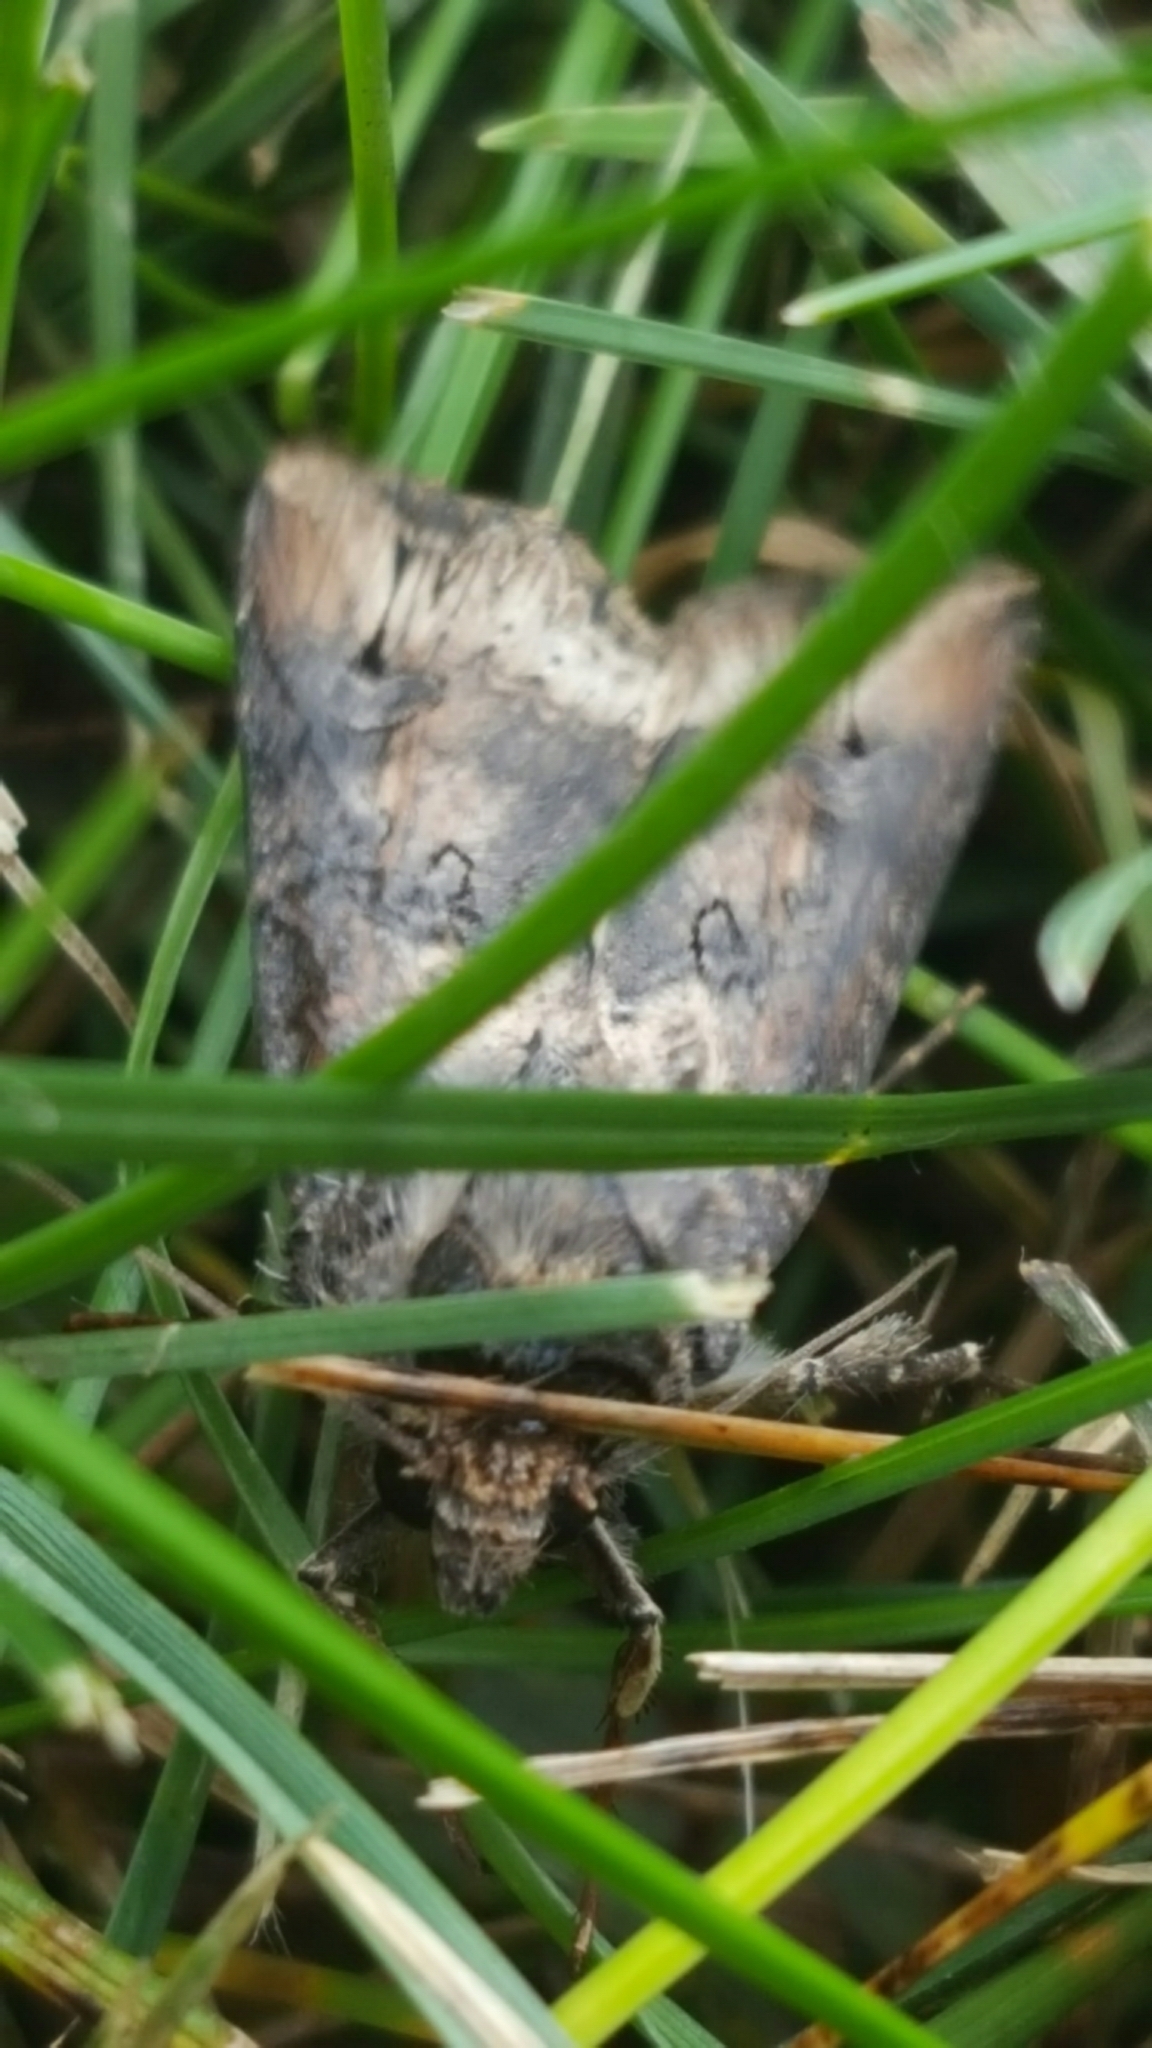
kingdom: Animalia
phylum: Arthropoda
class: Insecta
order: Lepidoptera
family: Noctuidae
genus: Agrotis
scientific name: Agrotis ipsilon
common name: Dark sword-grass
